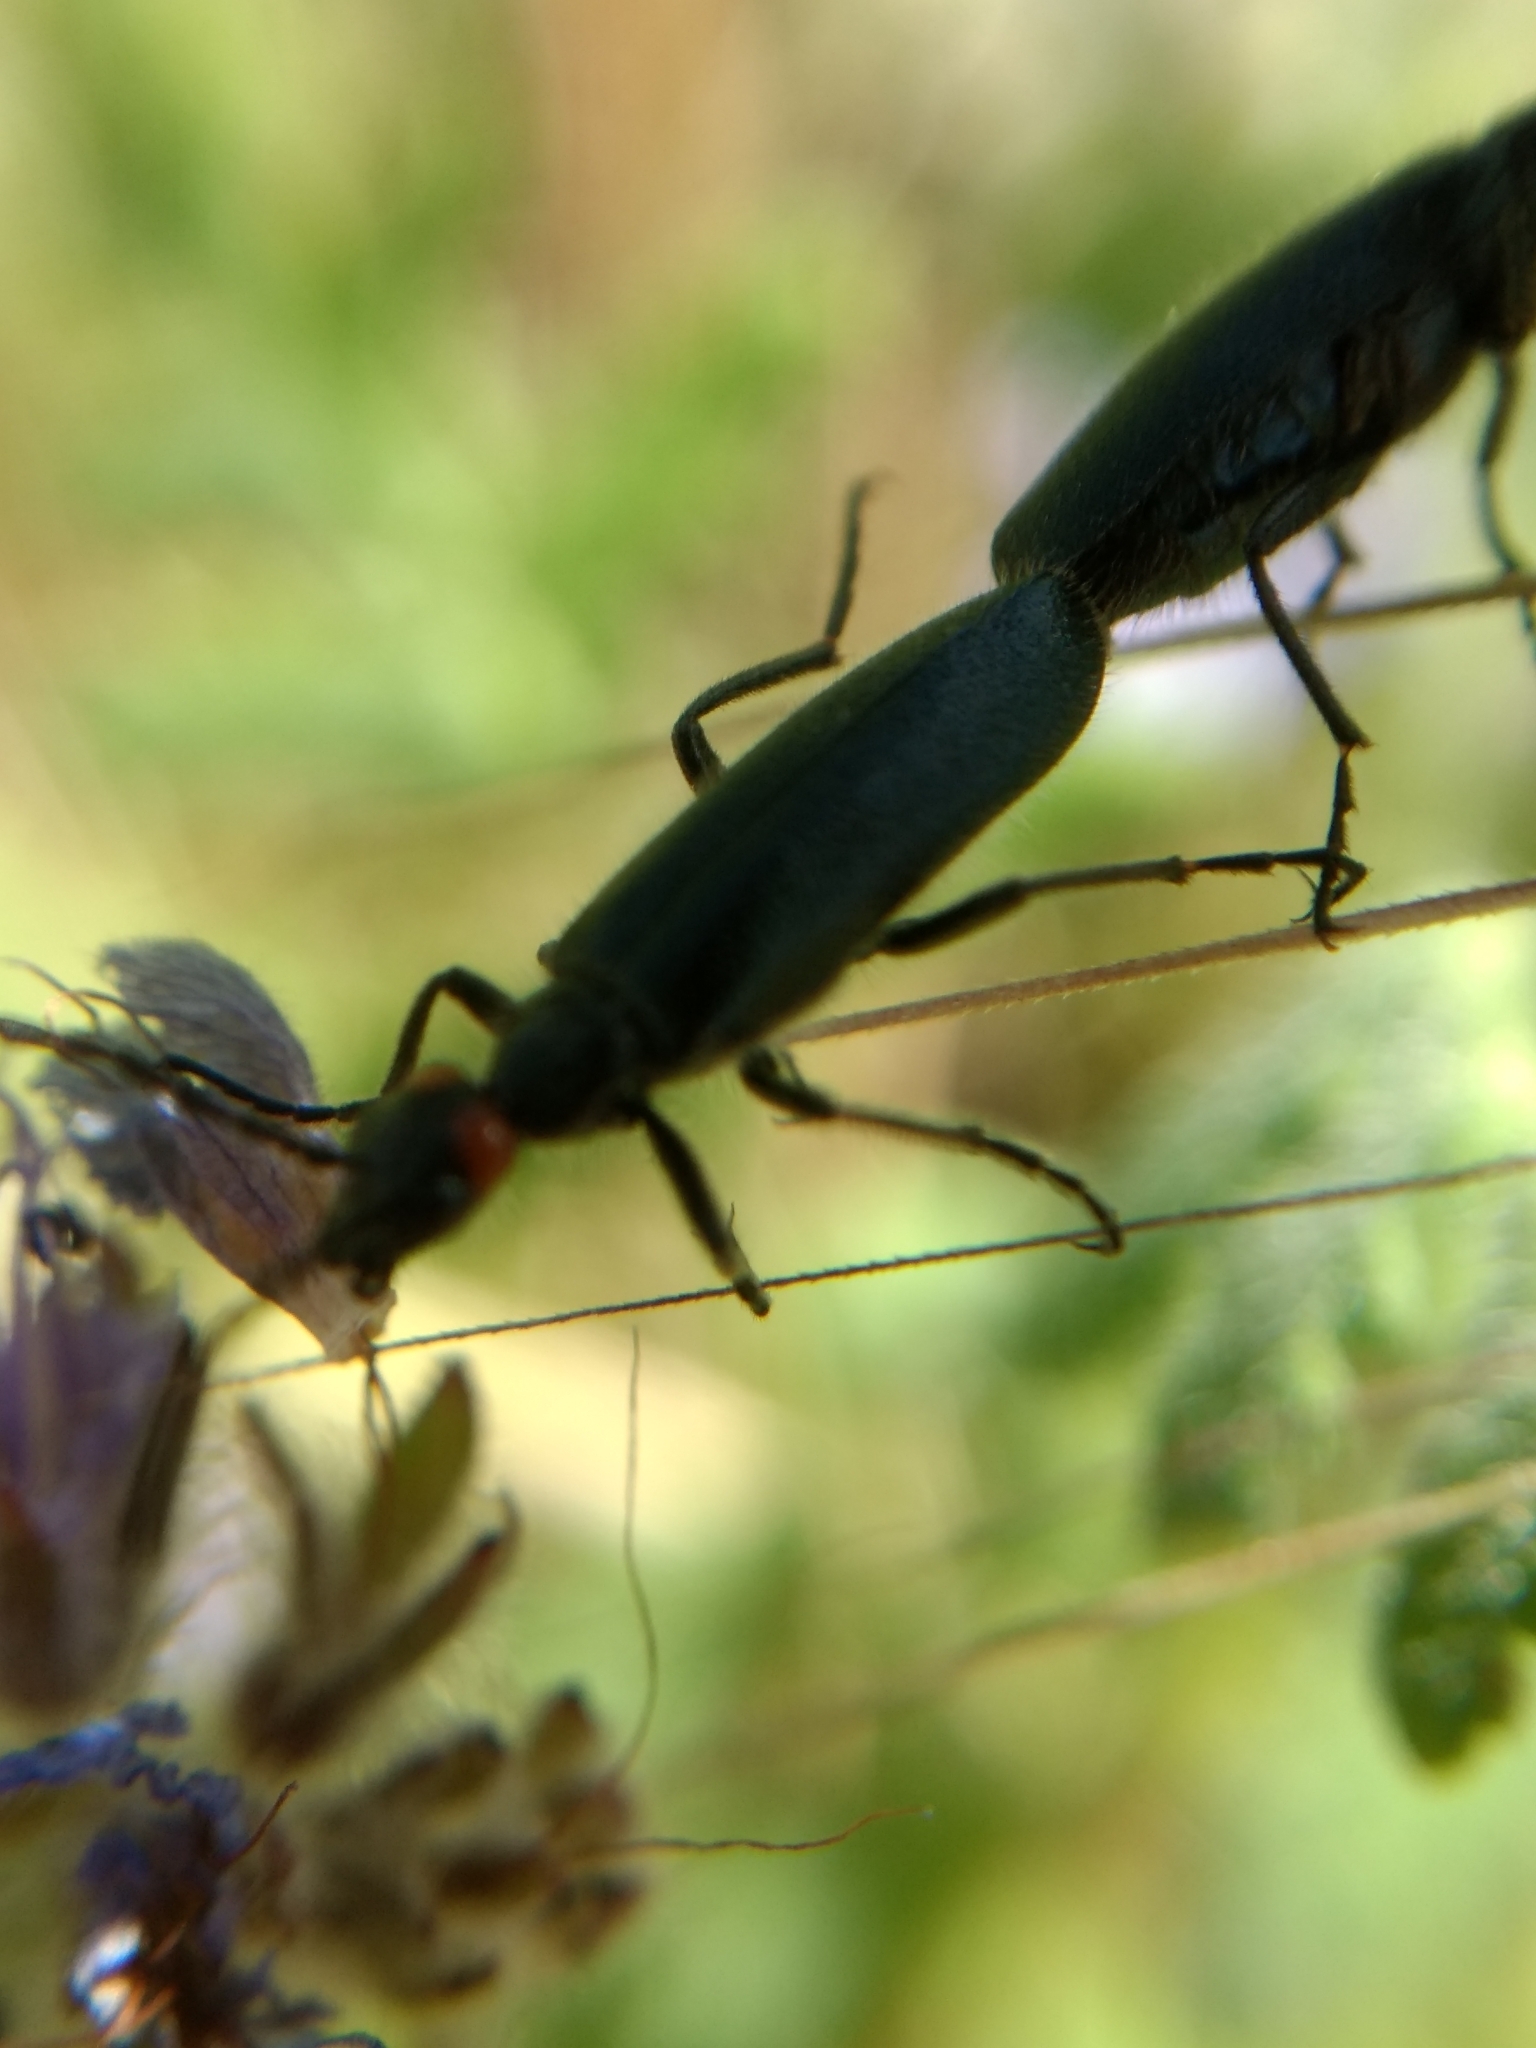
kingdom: Animalia
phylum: Arthropoda
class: Insecta
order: Coleoptera
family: Meloidae
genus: Lytta
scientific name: Lytta auriculata
